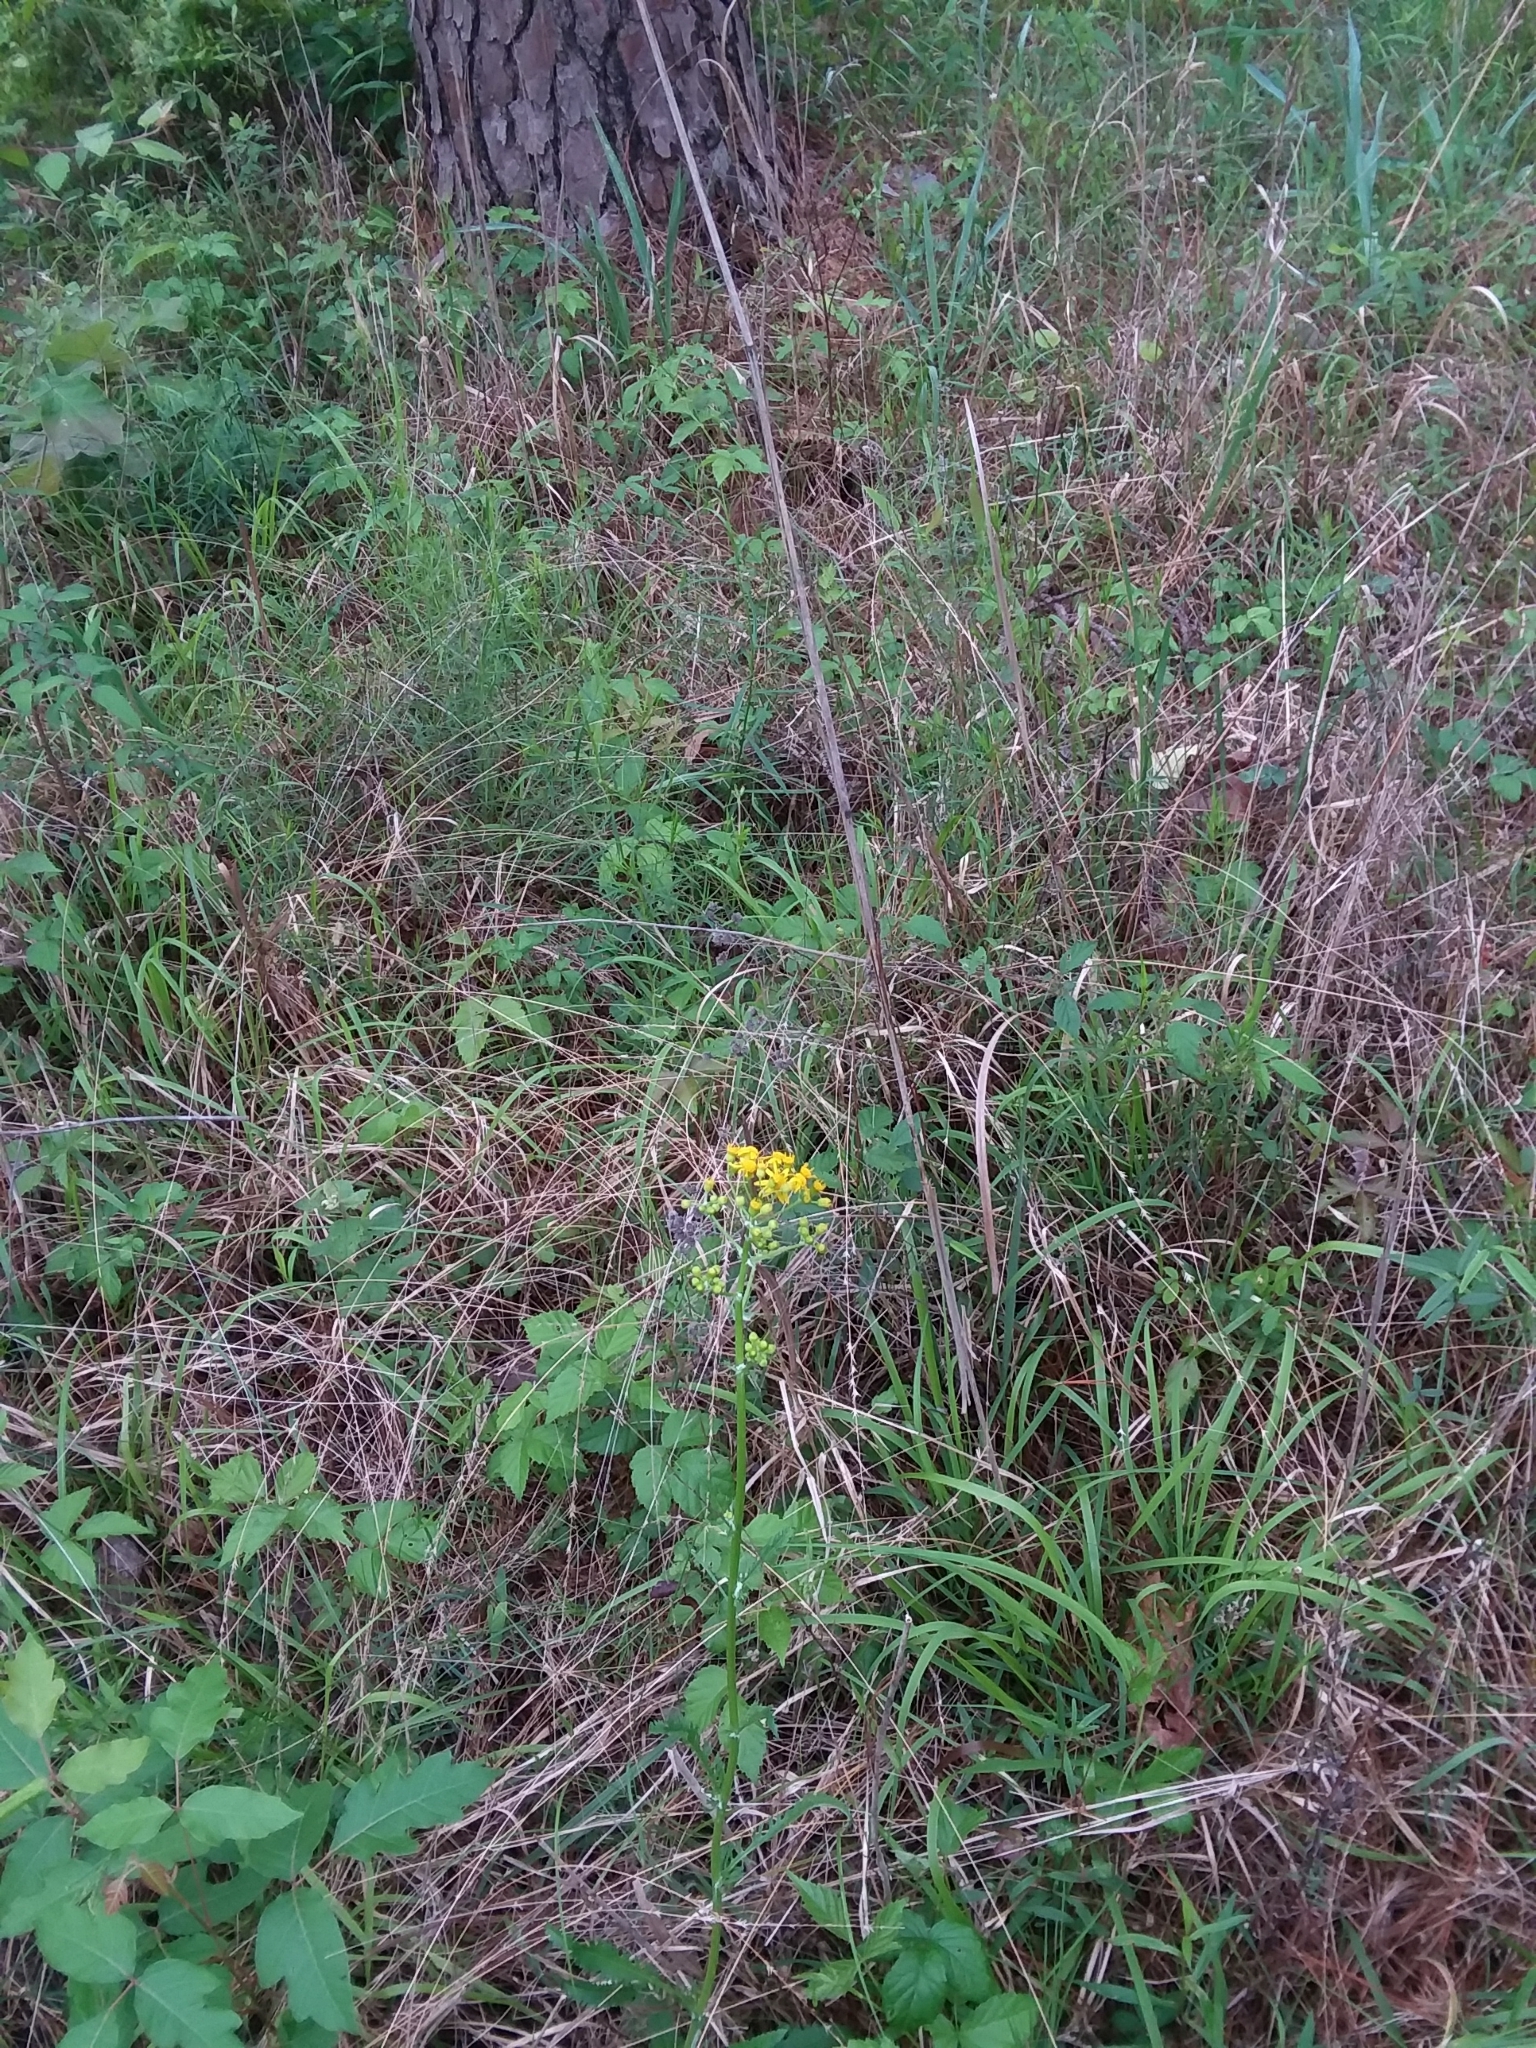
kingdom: Plantae
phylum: Tracheophyta
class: Magnoliopsida
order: Asterales
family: Asteraceae
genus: Packera
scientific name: Packera anonyma
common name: Small ragwort
